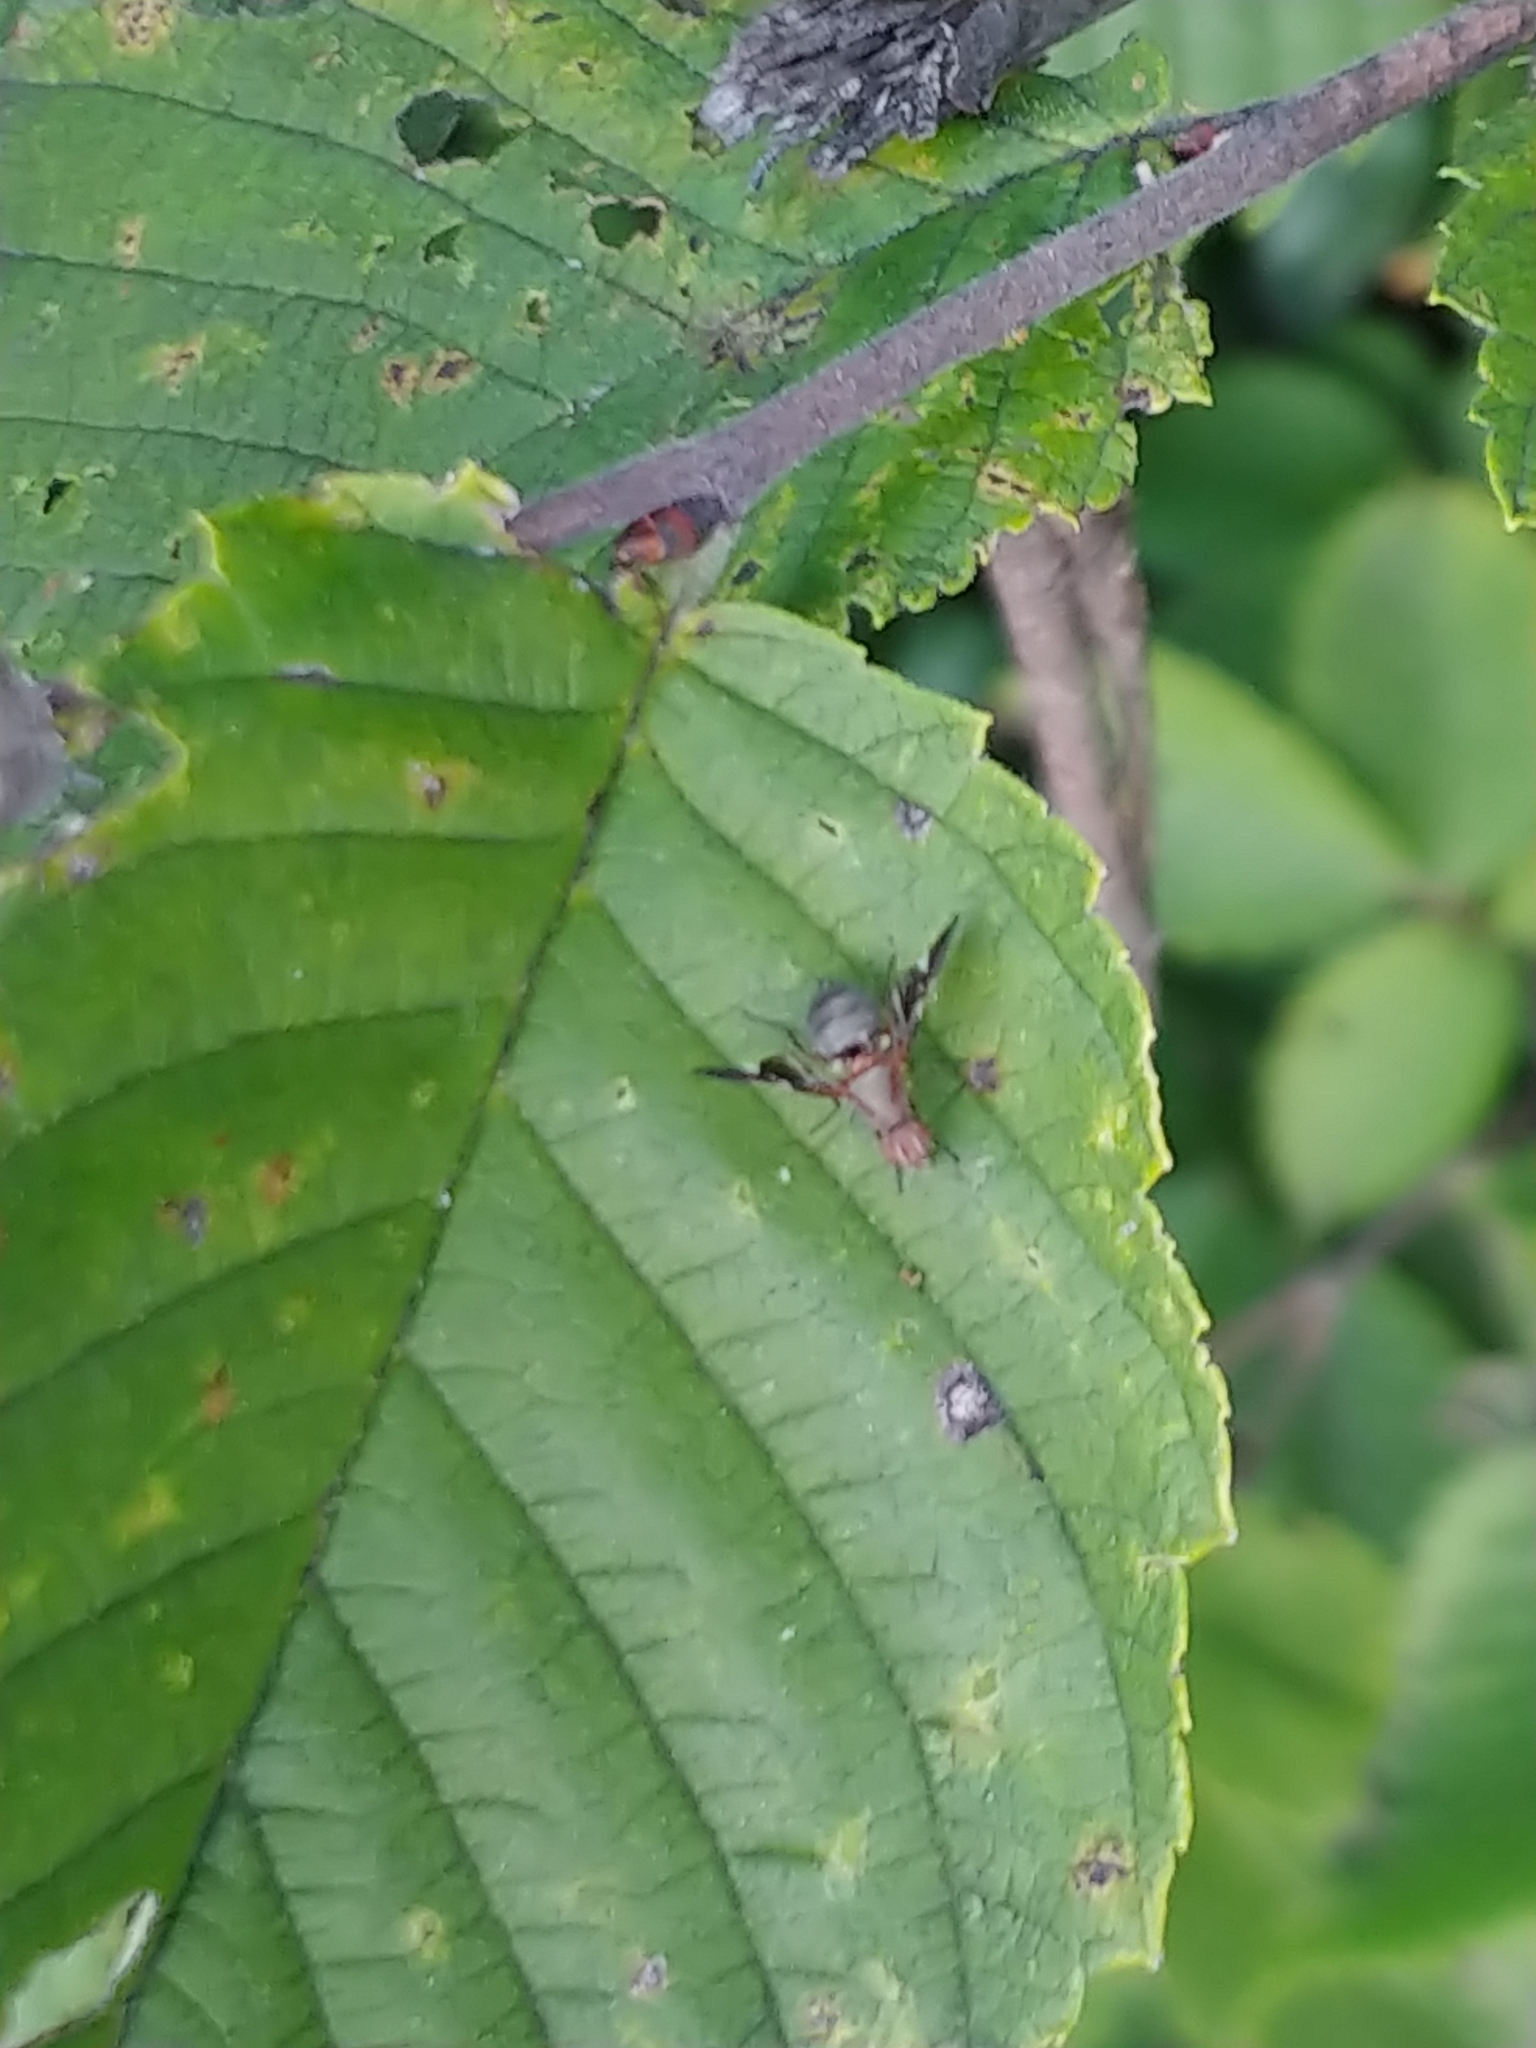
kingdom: Animalia
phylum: Arthropoda
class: Insecta
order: Diptera
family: Ulidiidae
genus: Delphinia
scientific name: Delphinia picta
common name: Common picture-winged fly
